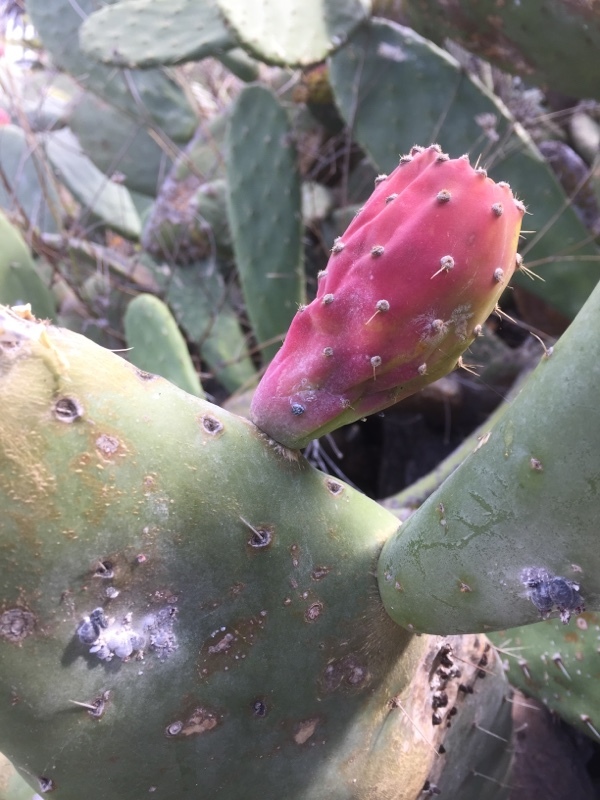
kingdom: Plantae
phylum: Tracheophyta
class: Magnoliopsida
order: Caryophyllales
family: Cactaceae
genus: Opuntia
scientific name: Opuntia ficus-indica
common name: Barbary fig
